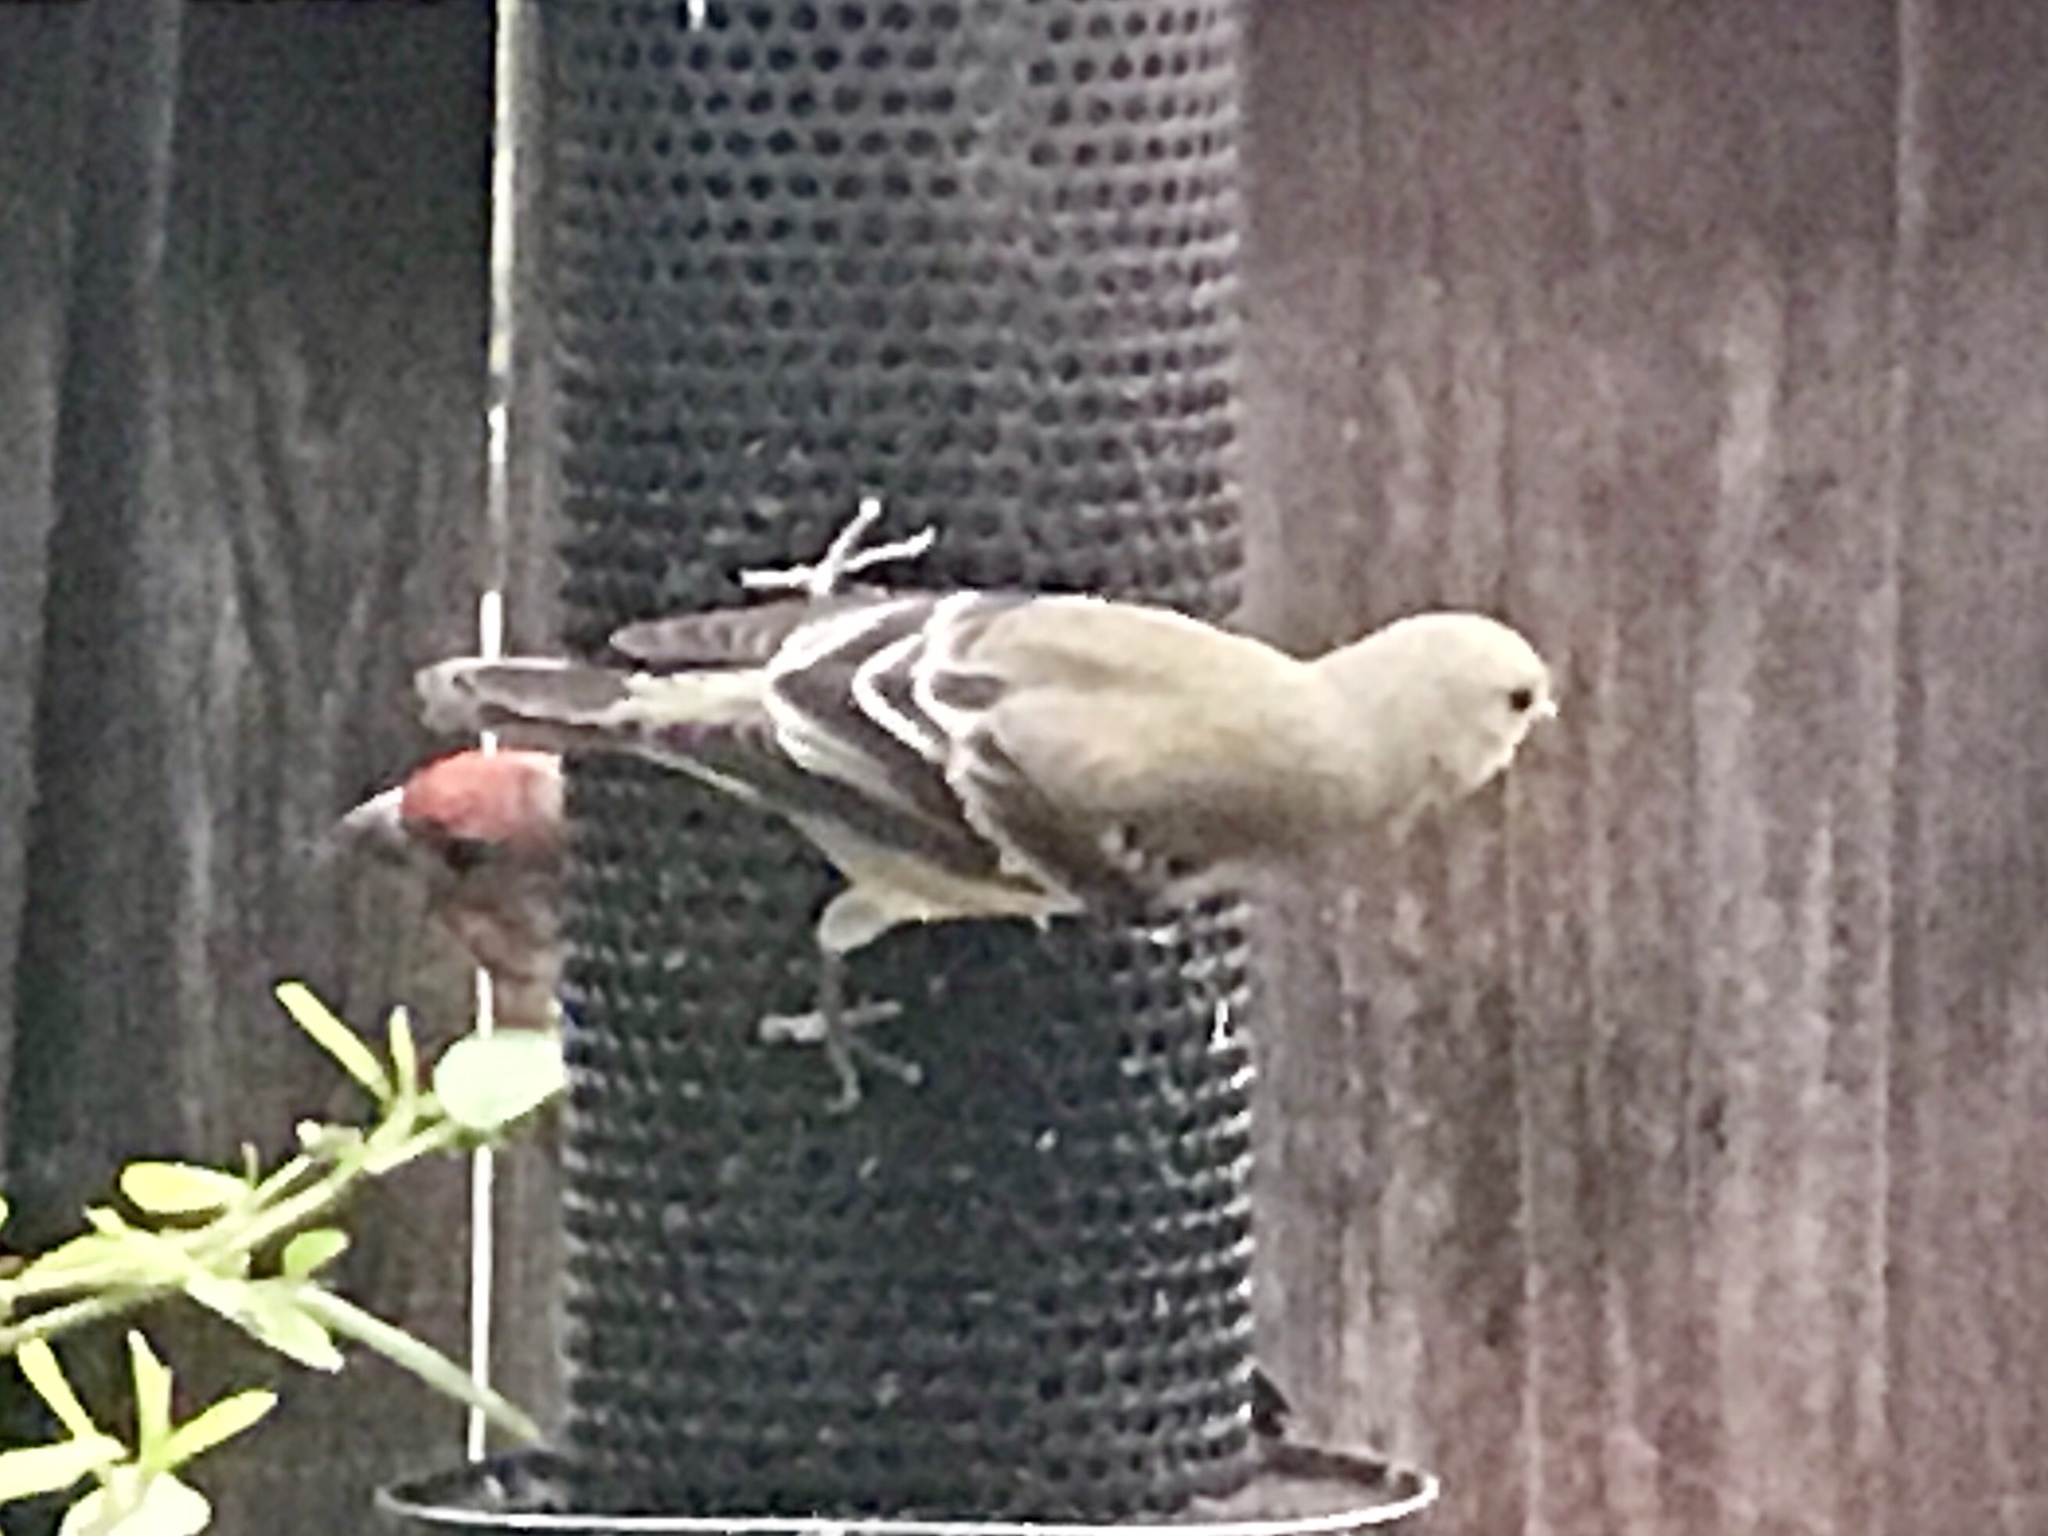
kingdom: Animalia
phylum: Chordata
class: Aves
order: Passeriformes
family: Fringillidae
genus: Spinus
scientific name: Spinus psaltria
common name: Lesser goldfinch
